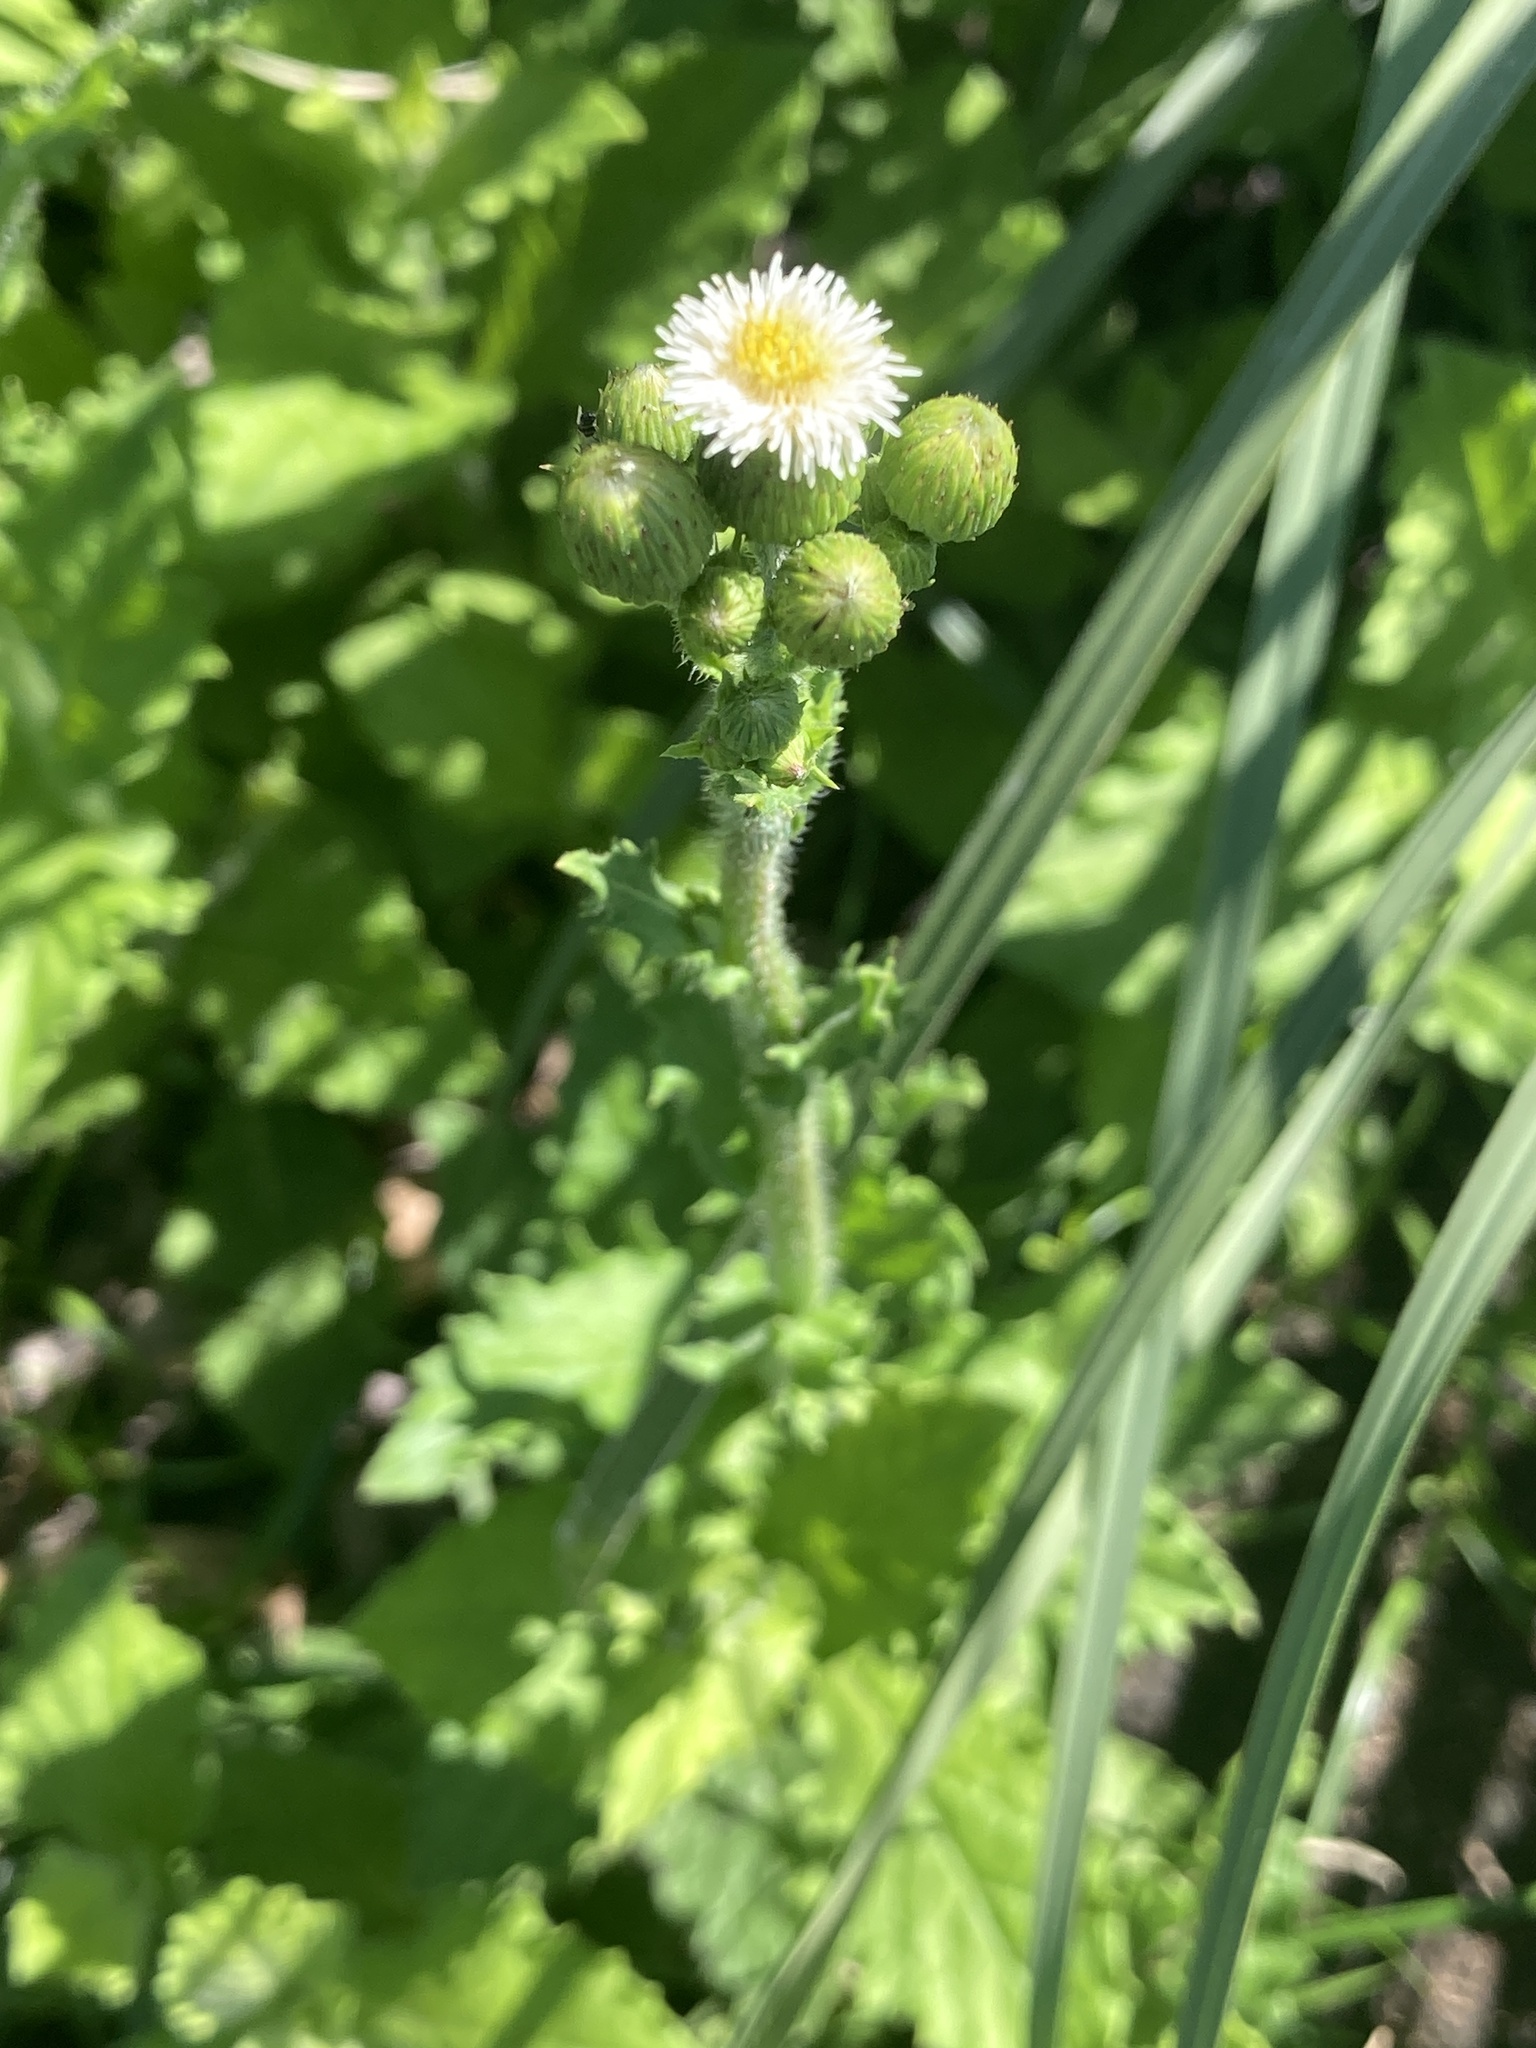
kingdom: Plantae
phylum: Tracheophyta
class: Magnoliopsida
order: Asterales
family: Asteraceae
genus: Podocoma
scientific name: Podocoma hirsuta
